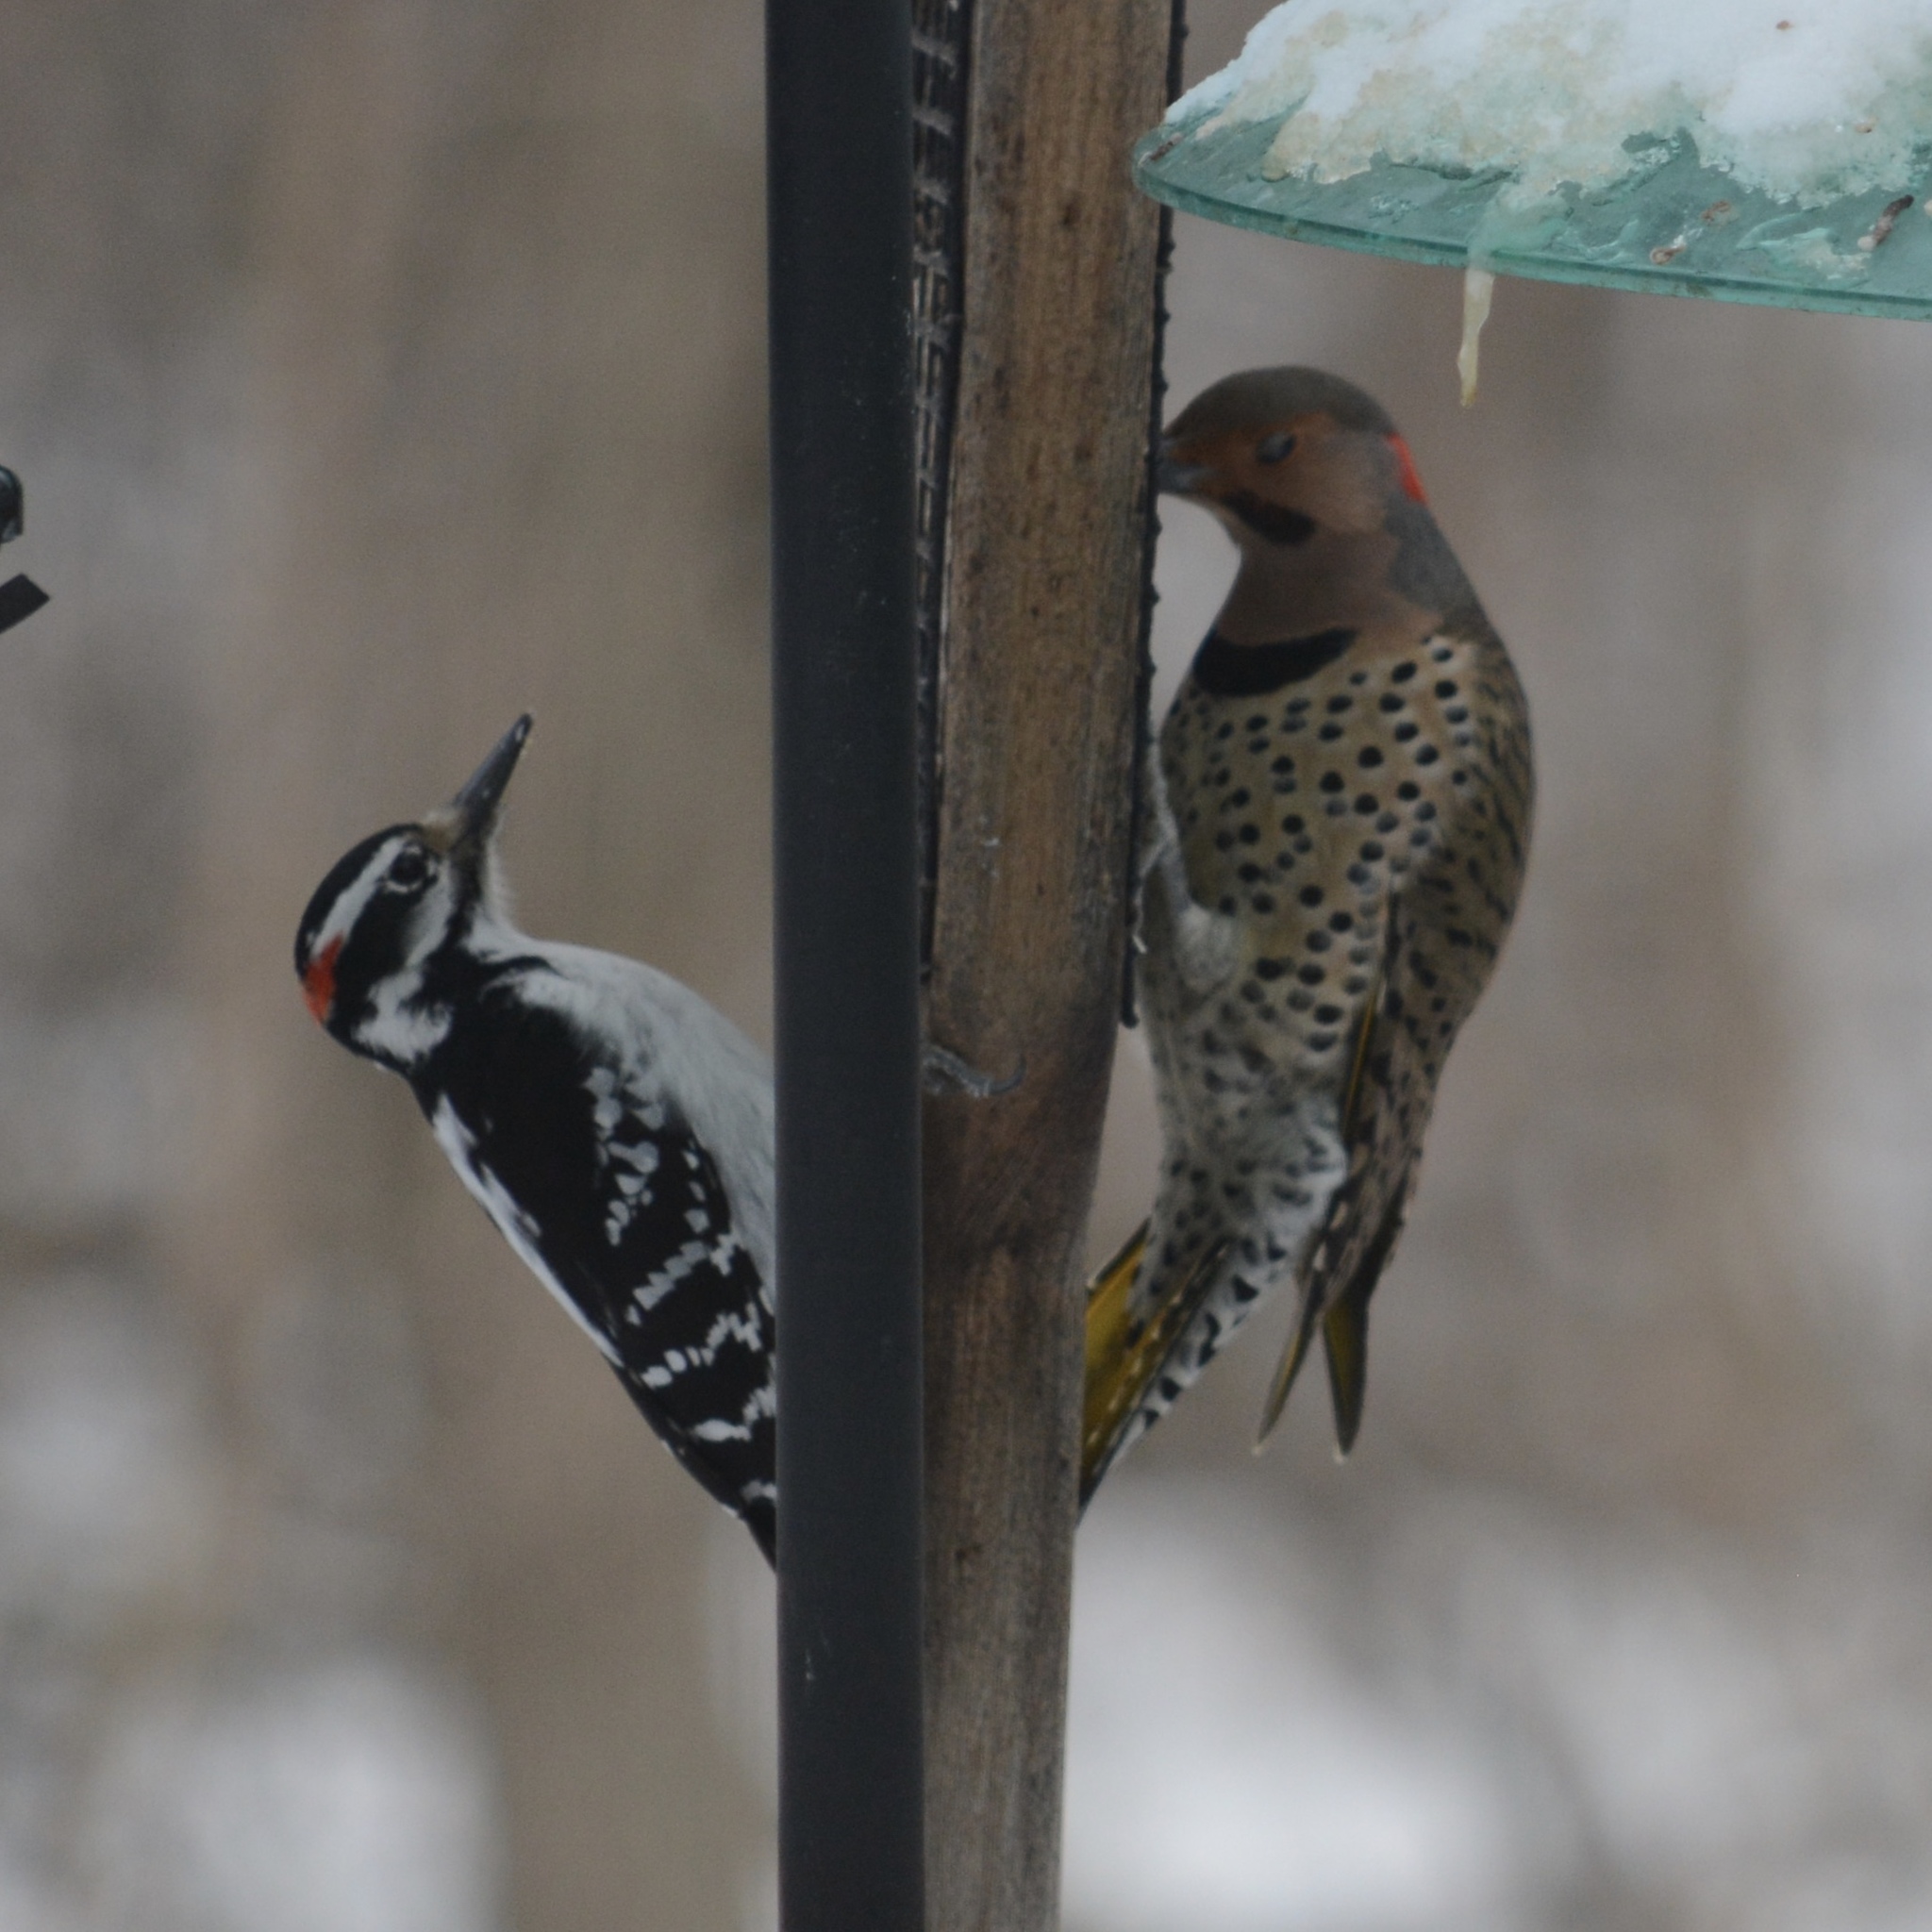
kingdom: Animalia
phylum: Chordata
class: Aves
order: Piciformes
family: Picidae
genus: Leuconotopicus
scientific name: Leuconotopicus villosus
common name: Hairy woodpecker
